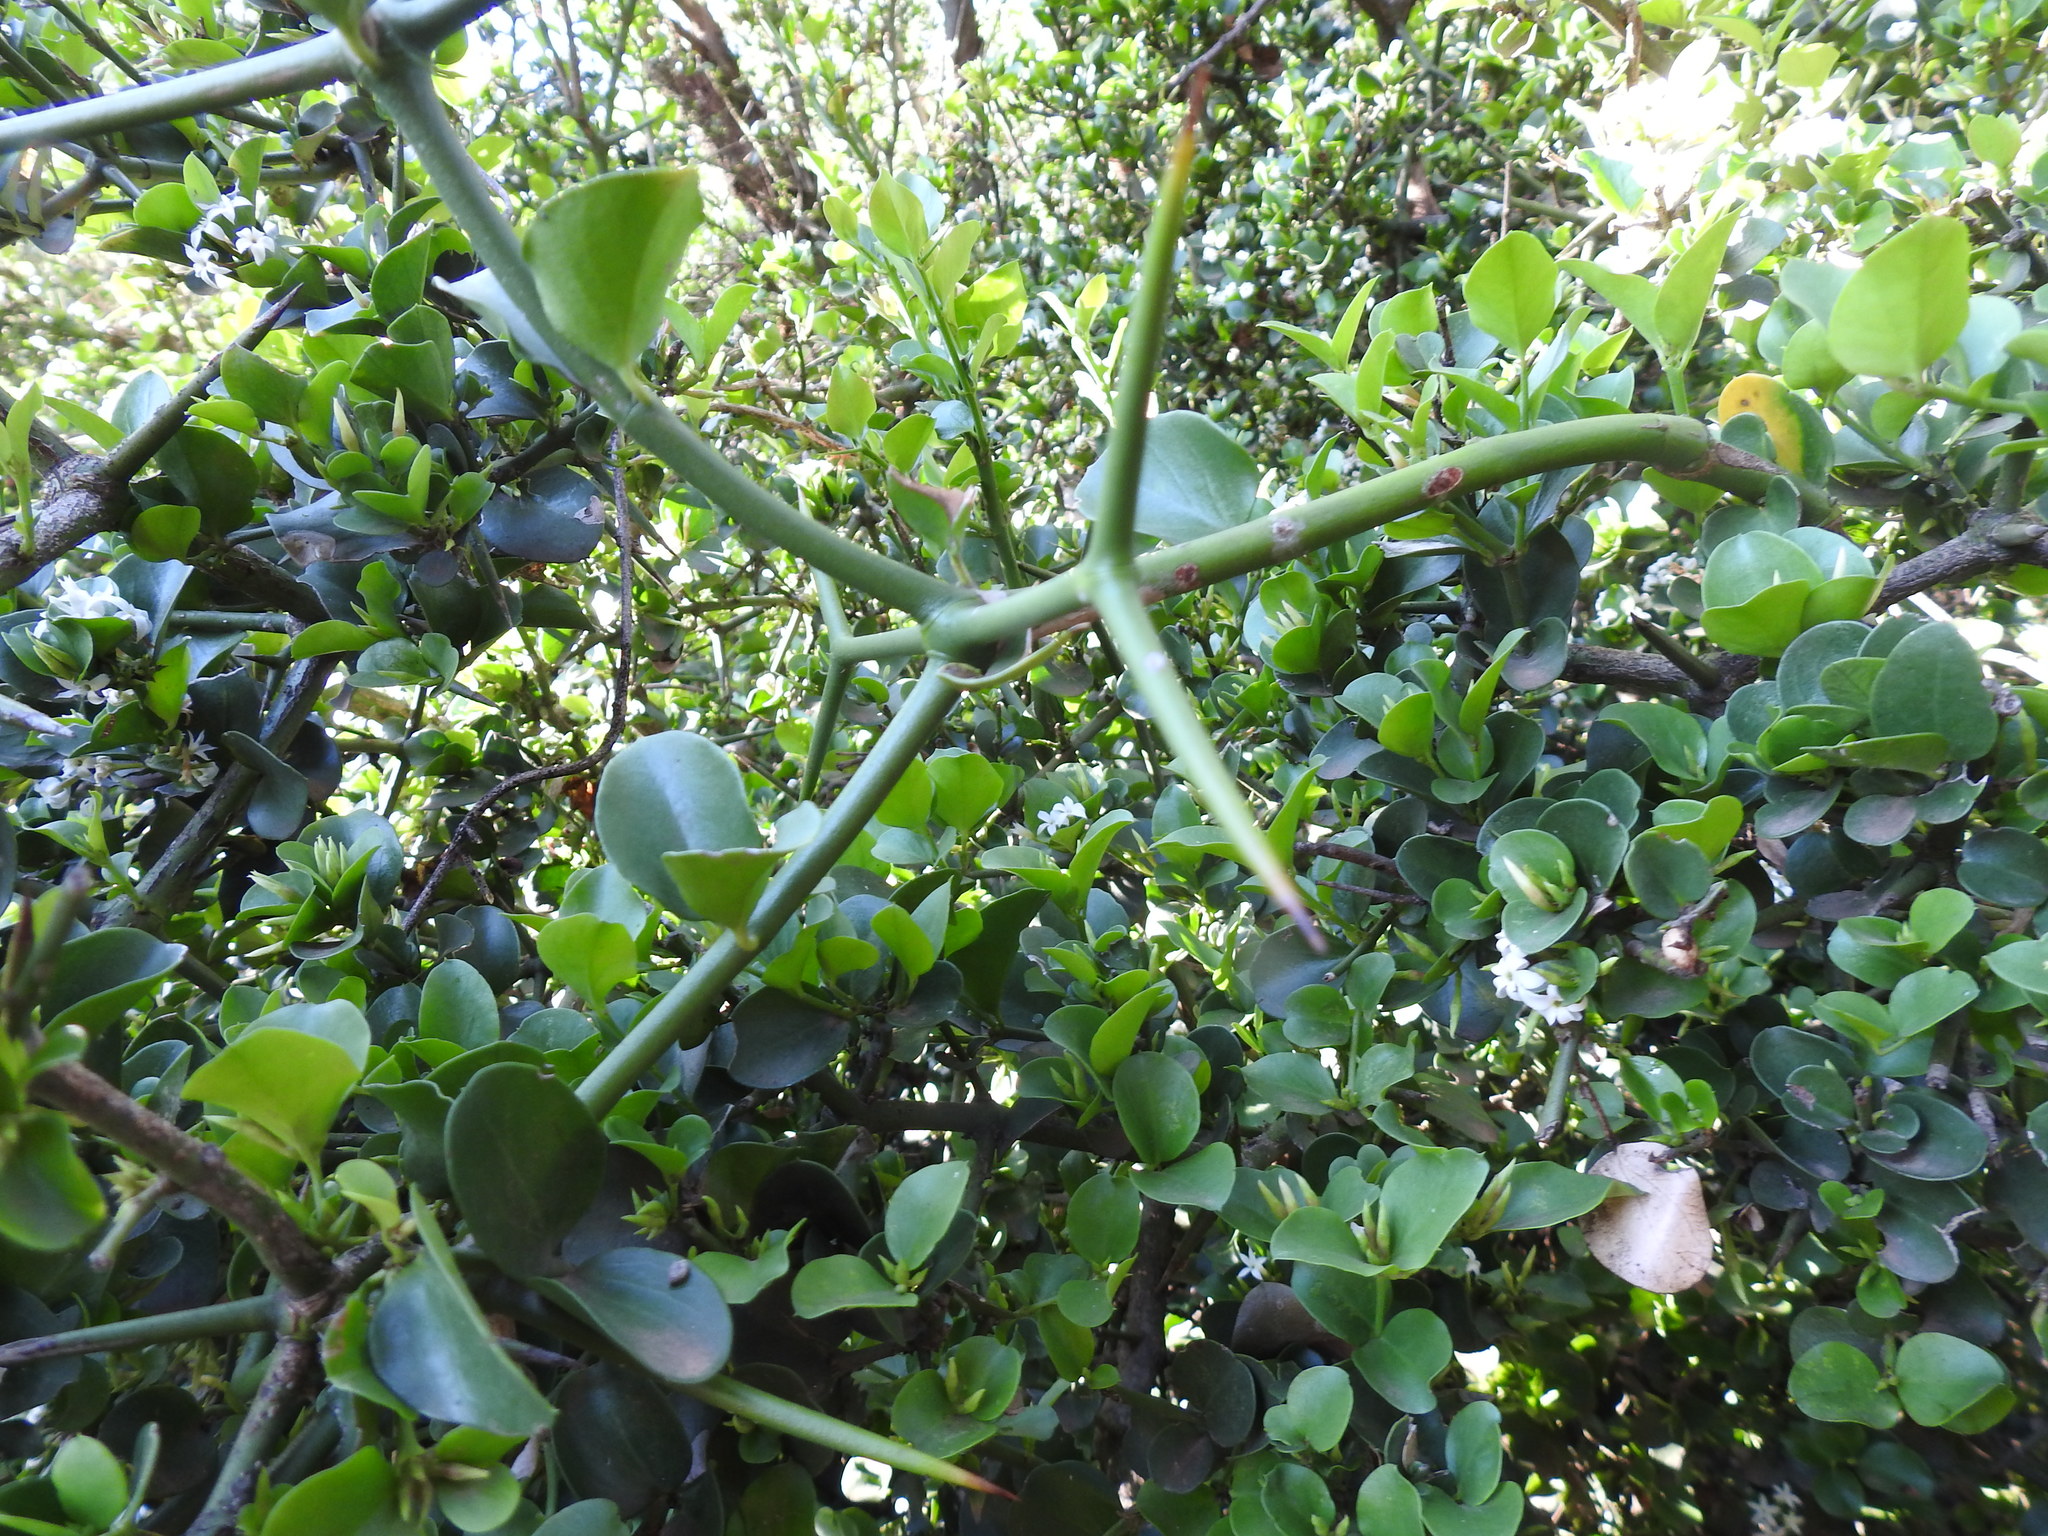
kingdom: Plantae
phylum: Tracheophyta
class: Magnoliopsida
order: Gentianales
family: Apocynaceae
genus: Carissa
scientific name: Carissa bispinosa
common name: Forest num-num
